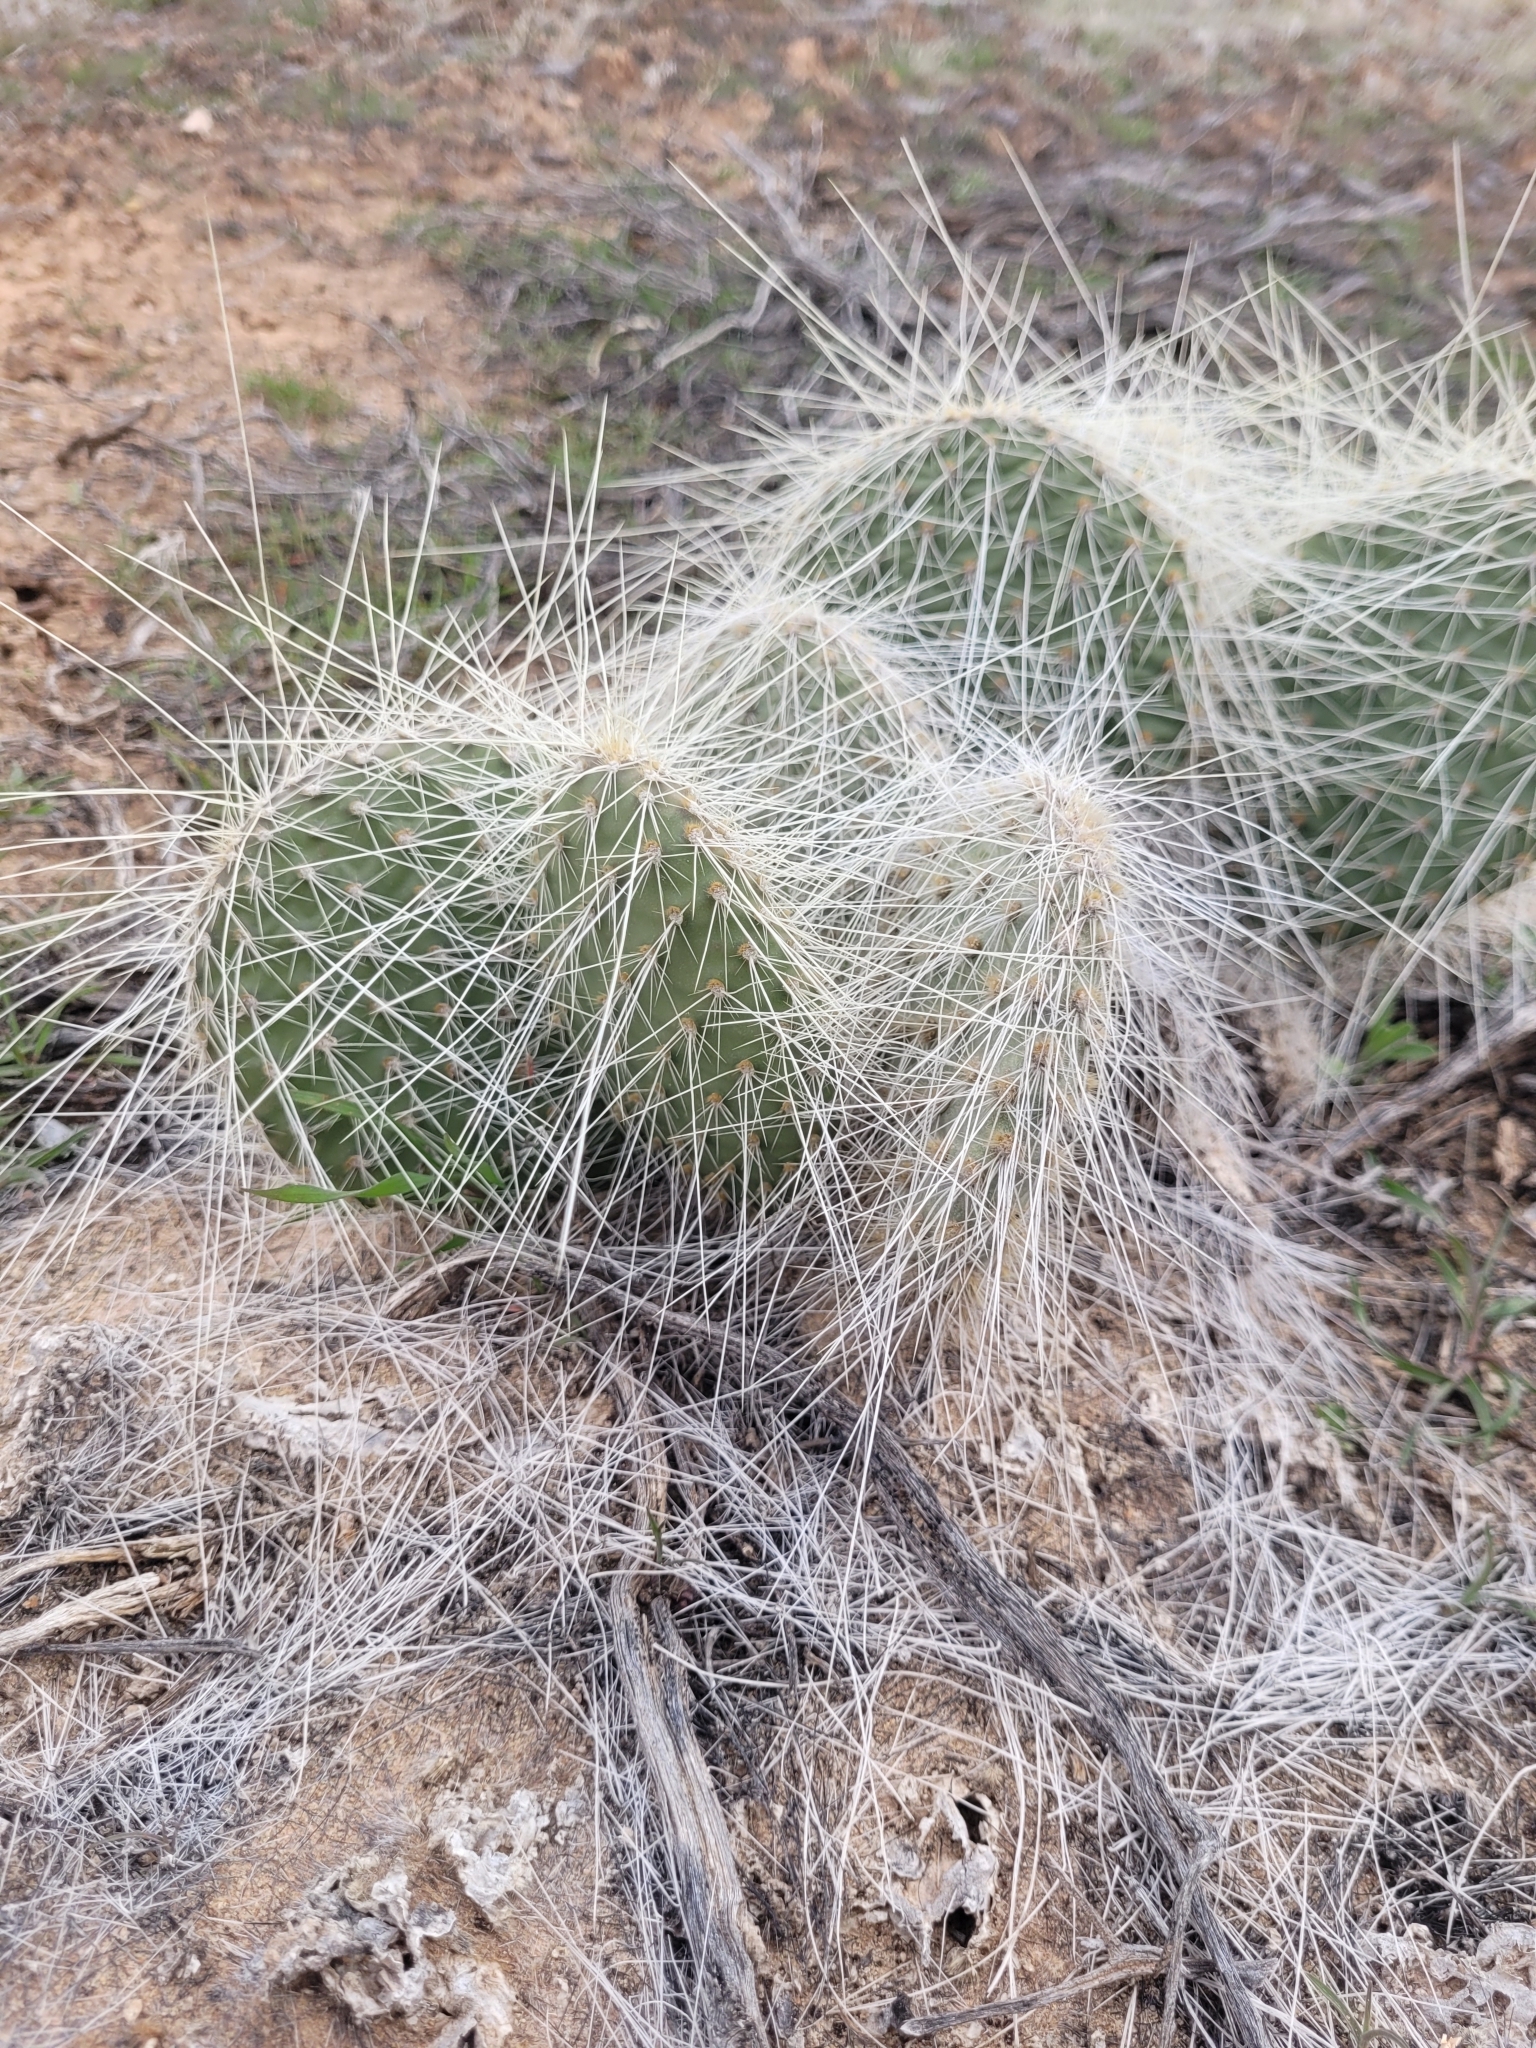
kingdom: Plantae
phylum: Tracheophyta
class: Magnoliopsida
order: Caryophyllales
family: Cactaceae
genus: Opuntia
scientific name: Opuntia polyacantha
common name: Plains prickly-pear
